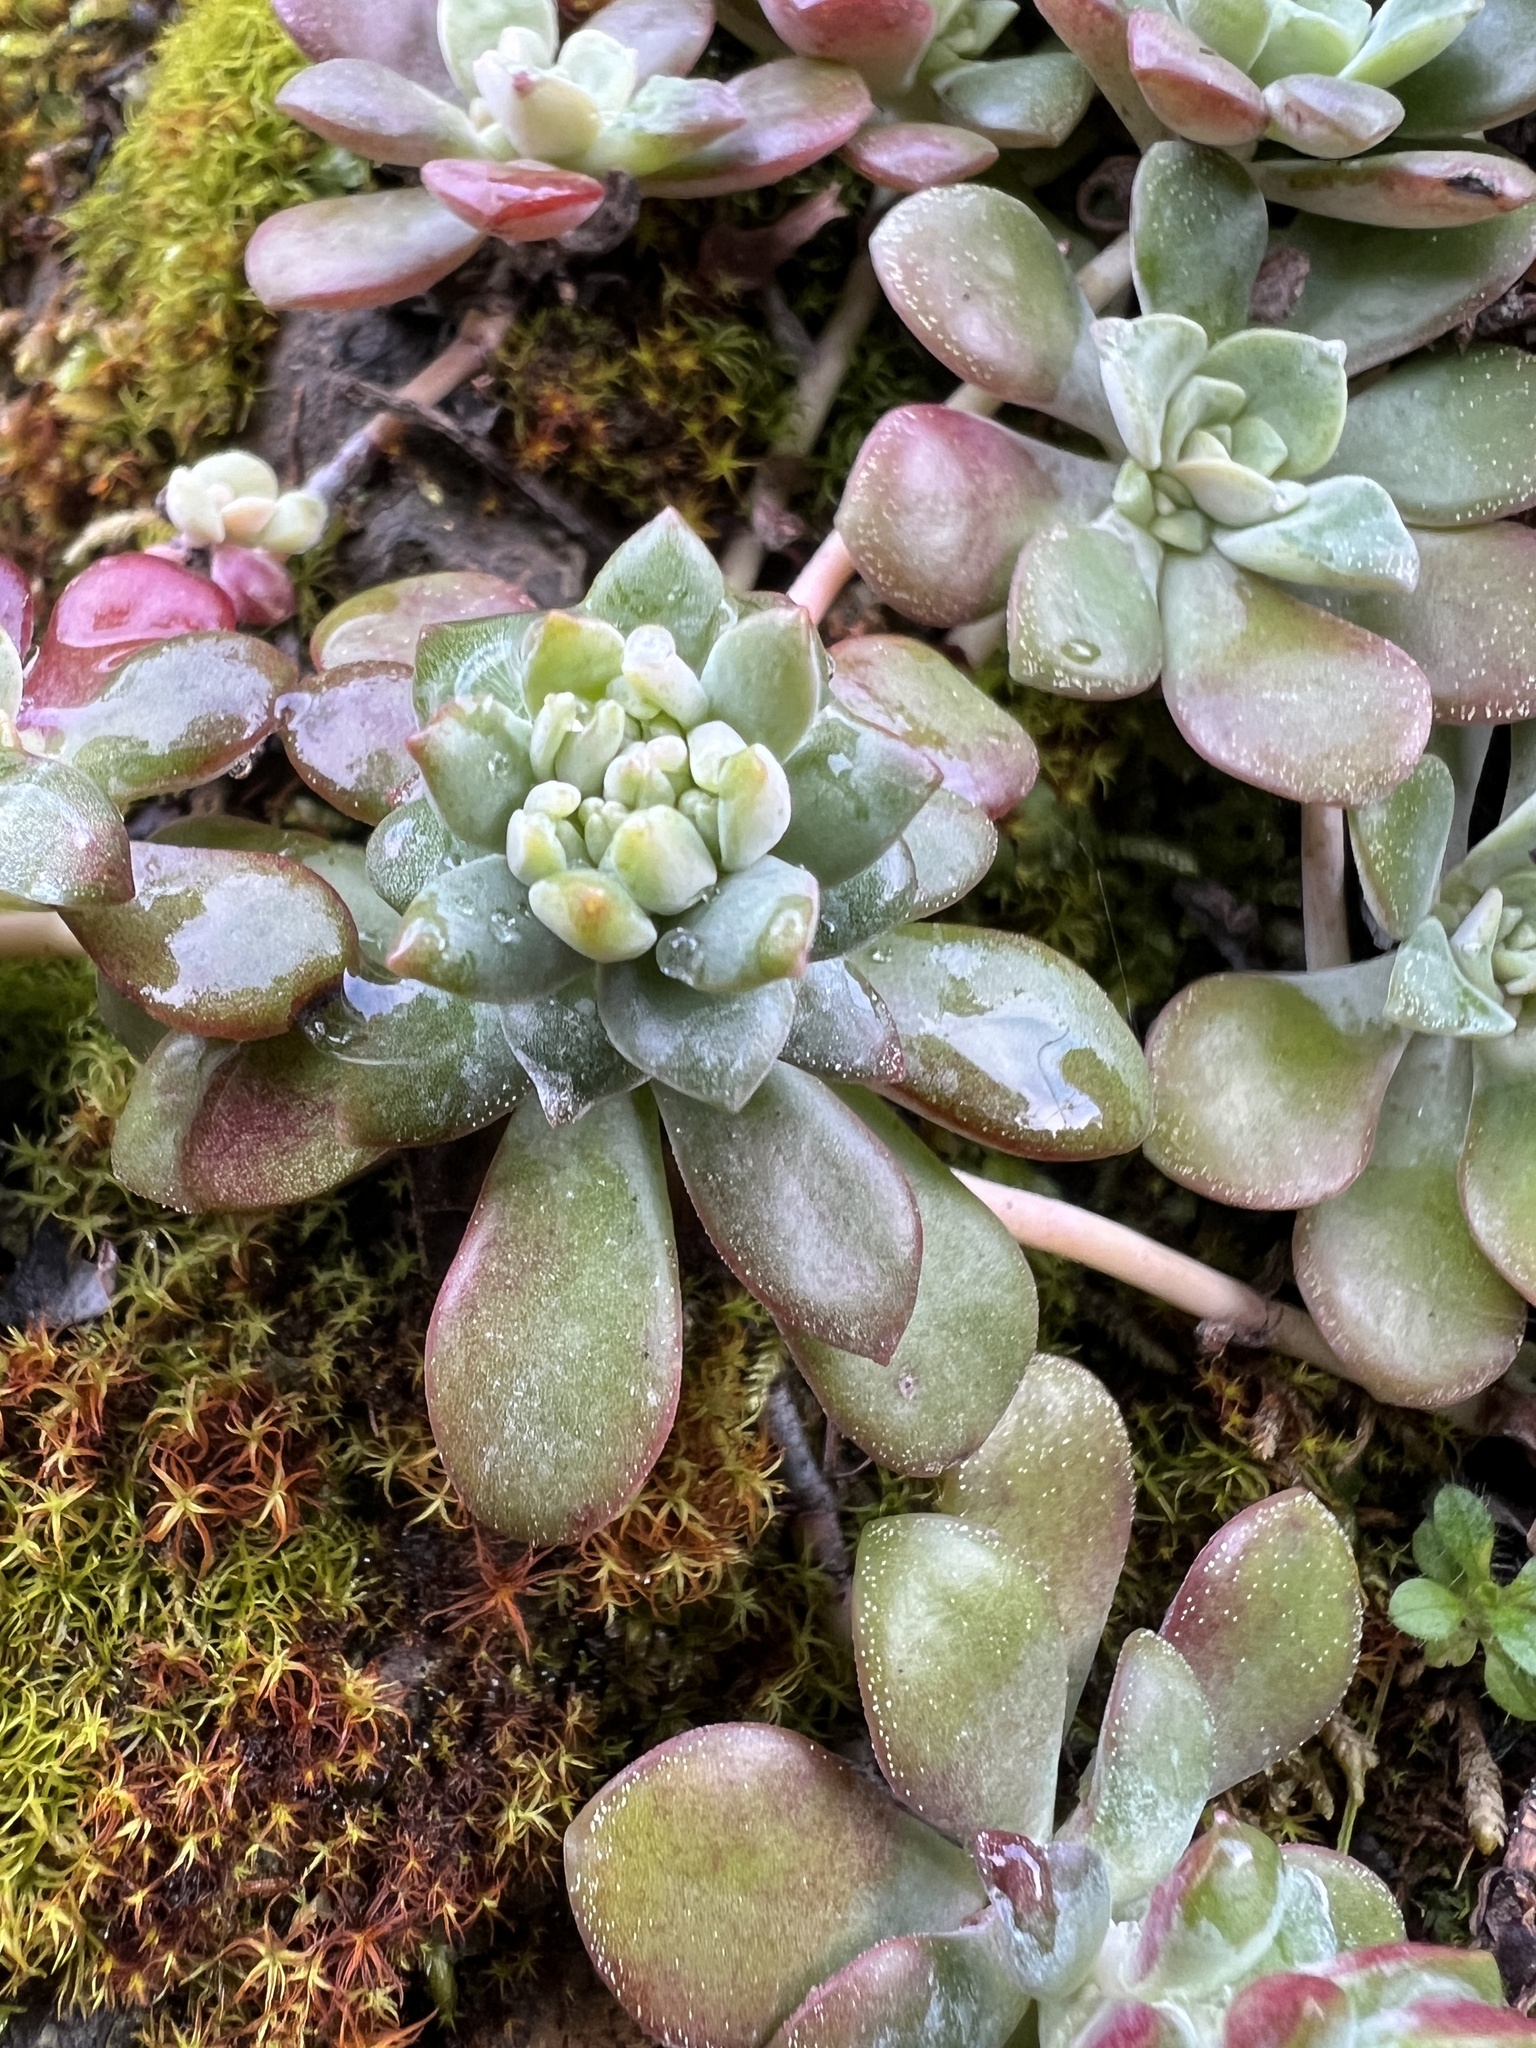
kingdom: Plantae
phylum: Tracheophyta
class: Magnoliopsida
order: Saxifragales
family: Crassulaceae
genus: Sedum
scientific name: Sedum spathulifolium
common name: Colorado stonecrop
